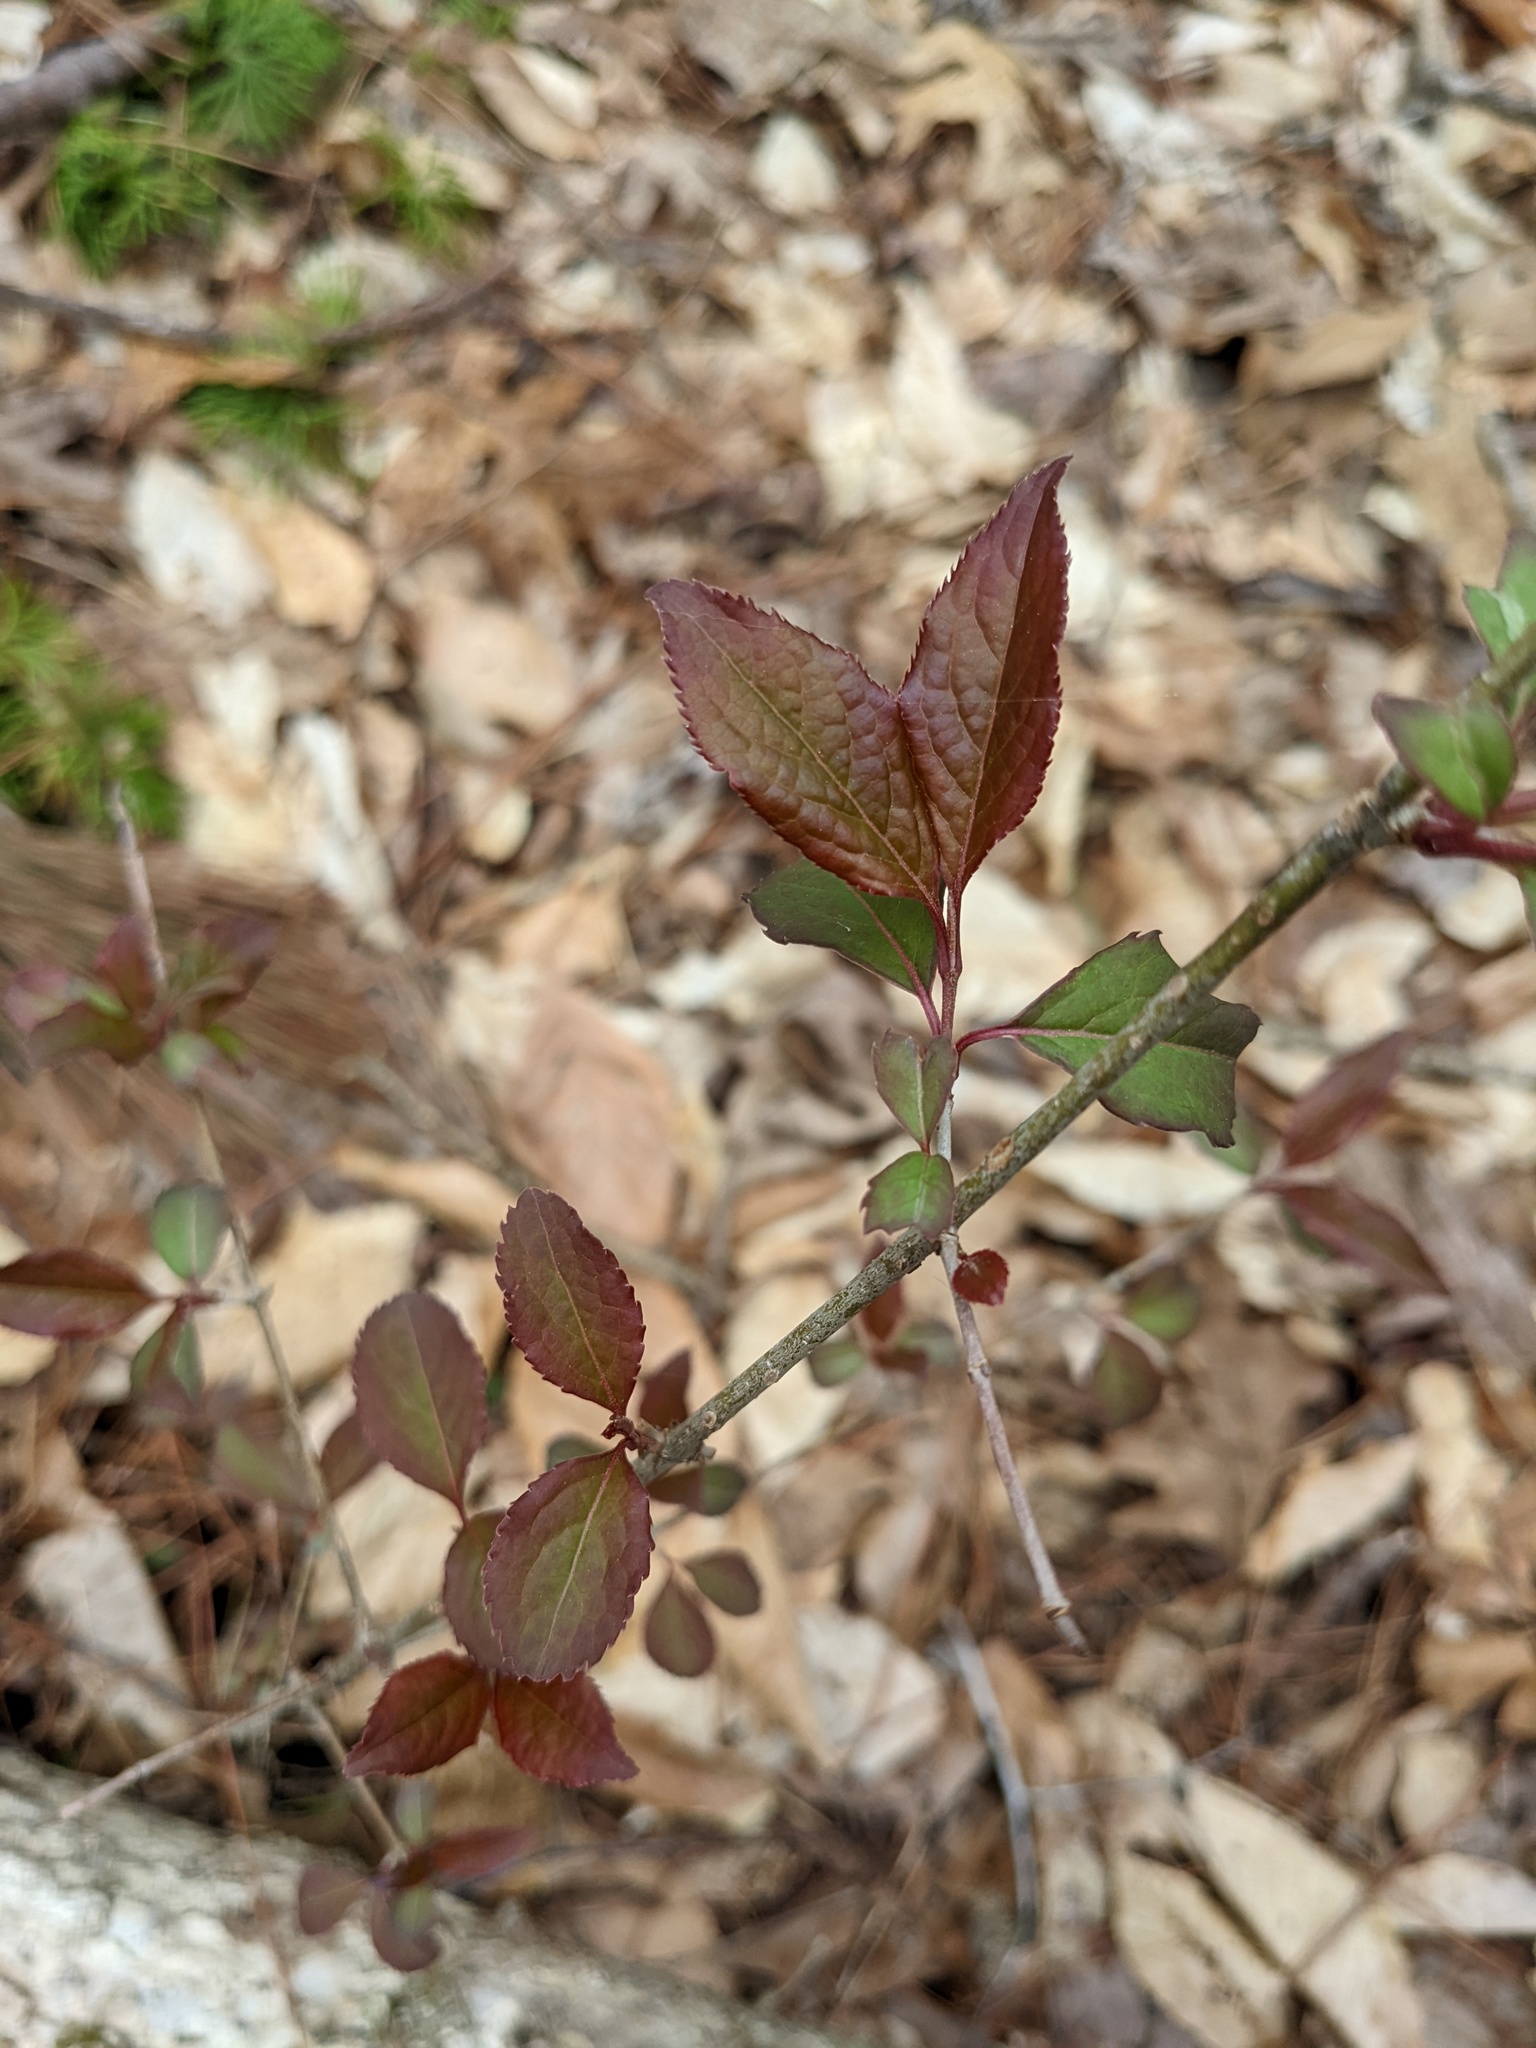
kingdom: Plantae
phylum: Tracheophyta
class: Magnoliopsida
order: Dipsacales
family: Viburnaceae
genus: Viburnum
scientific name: Viburnum prunifolium
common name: Black haw
